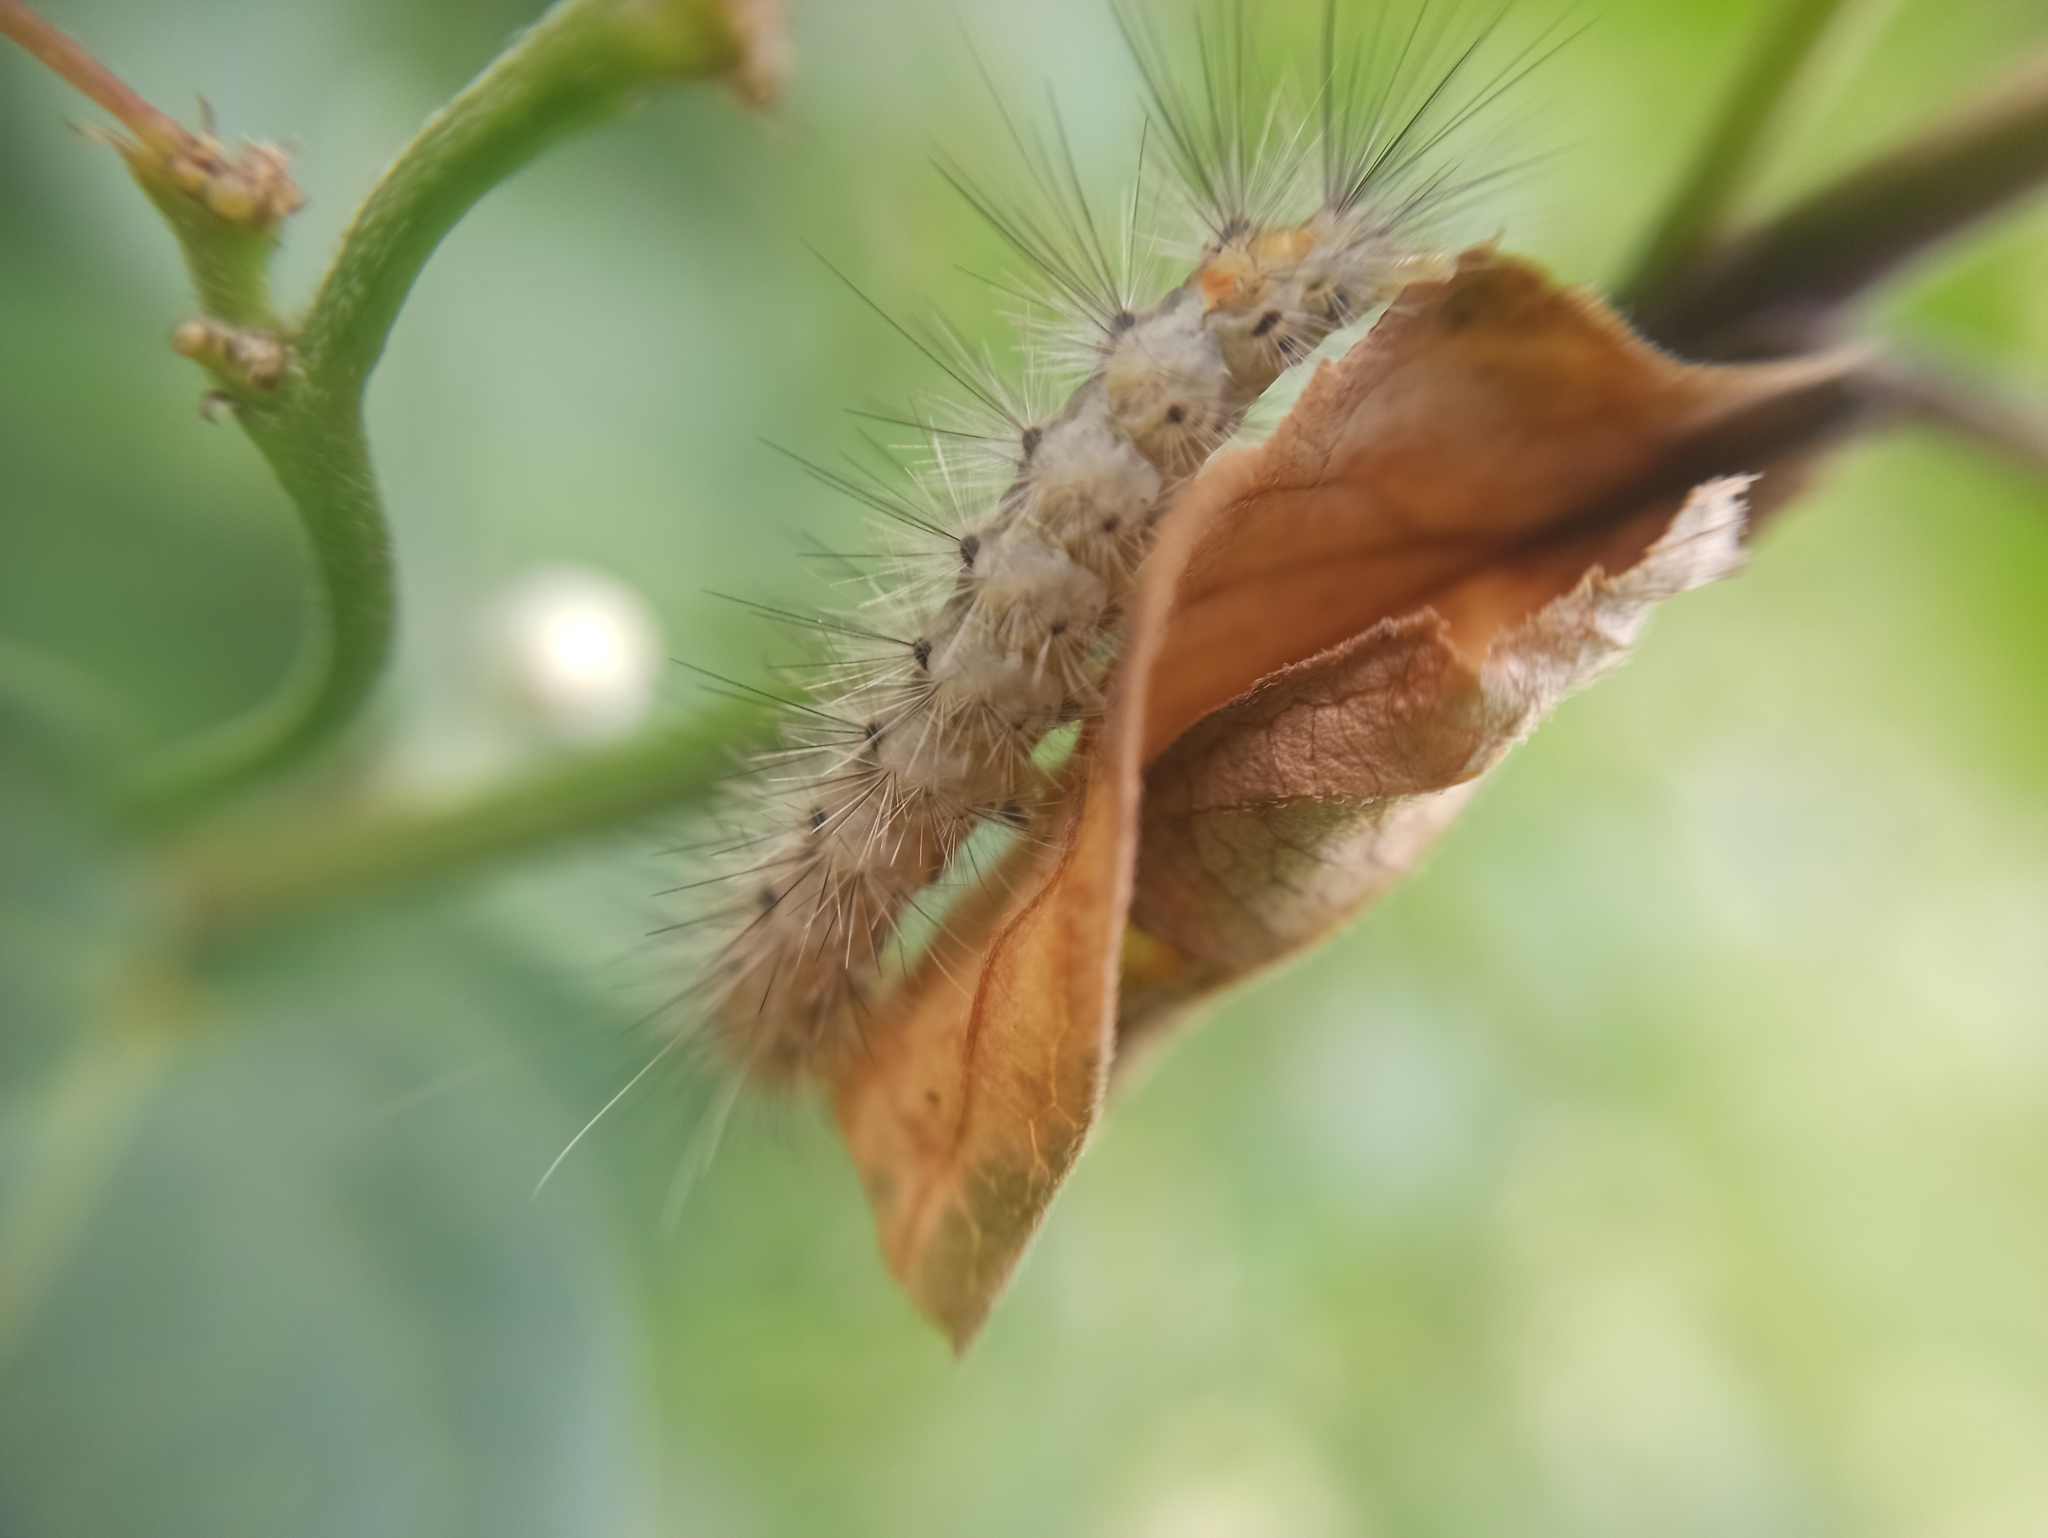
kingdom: Animalia
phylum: Arthropoda
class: Insecta
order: Lepidoptera
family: Erebidae
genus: Hyphantria
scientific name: Hyphantria cunea
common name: American white moth
